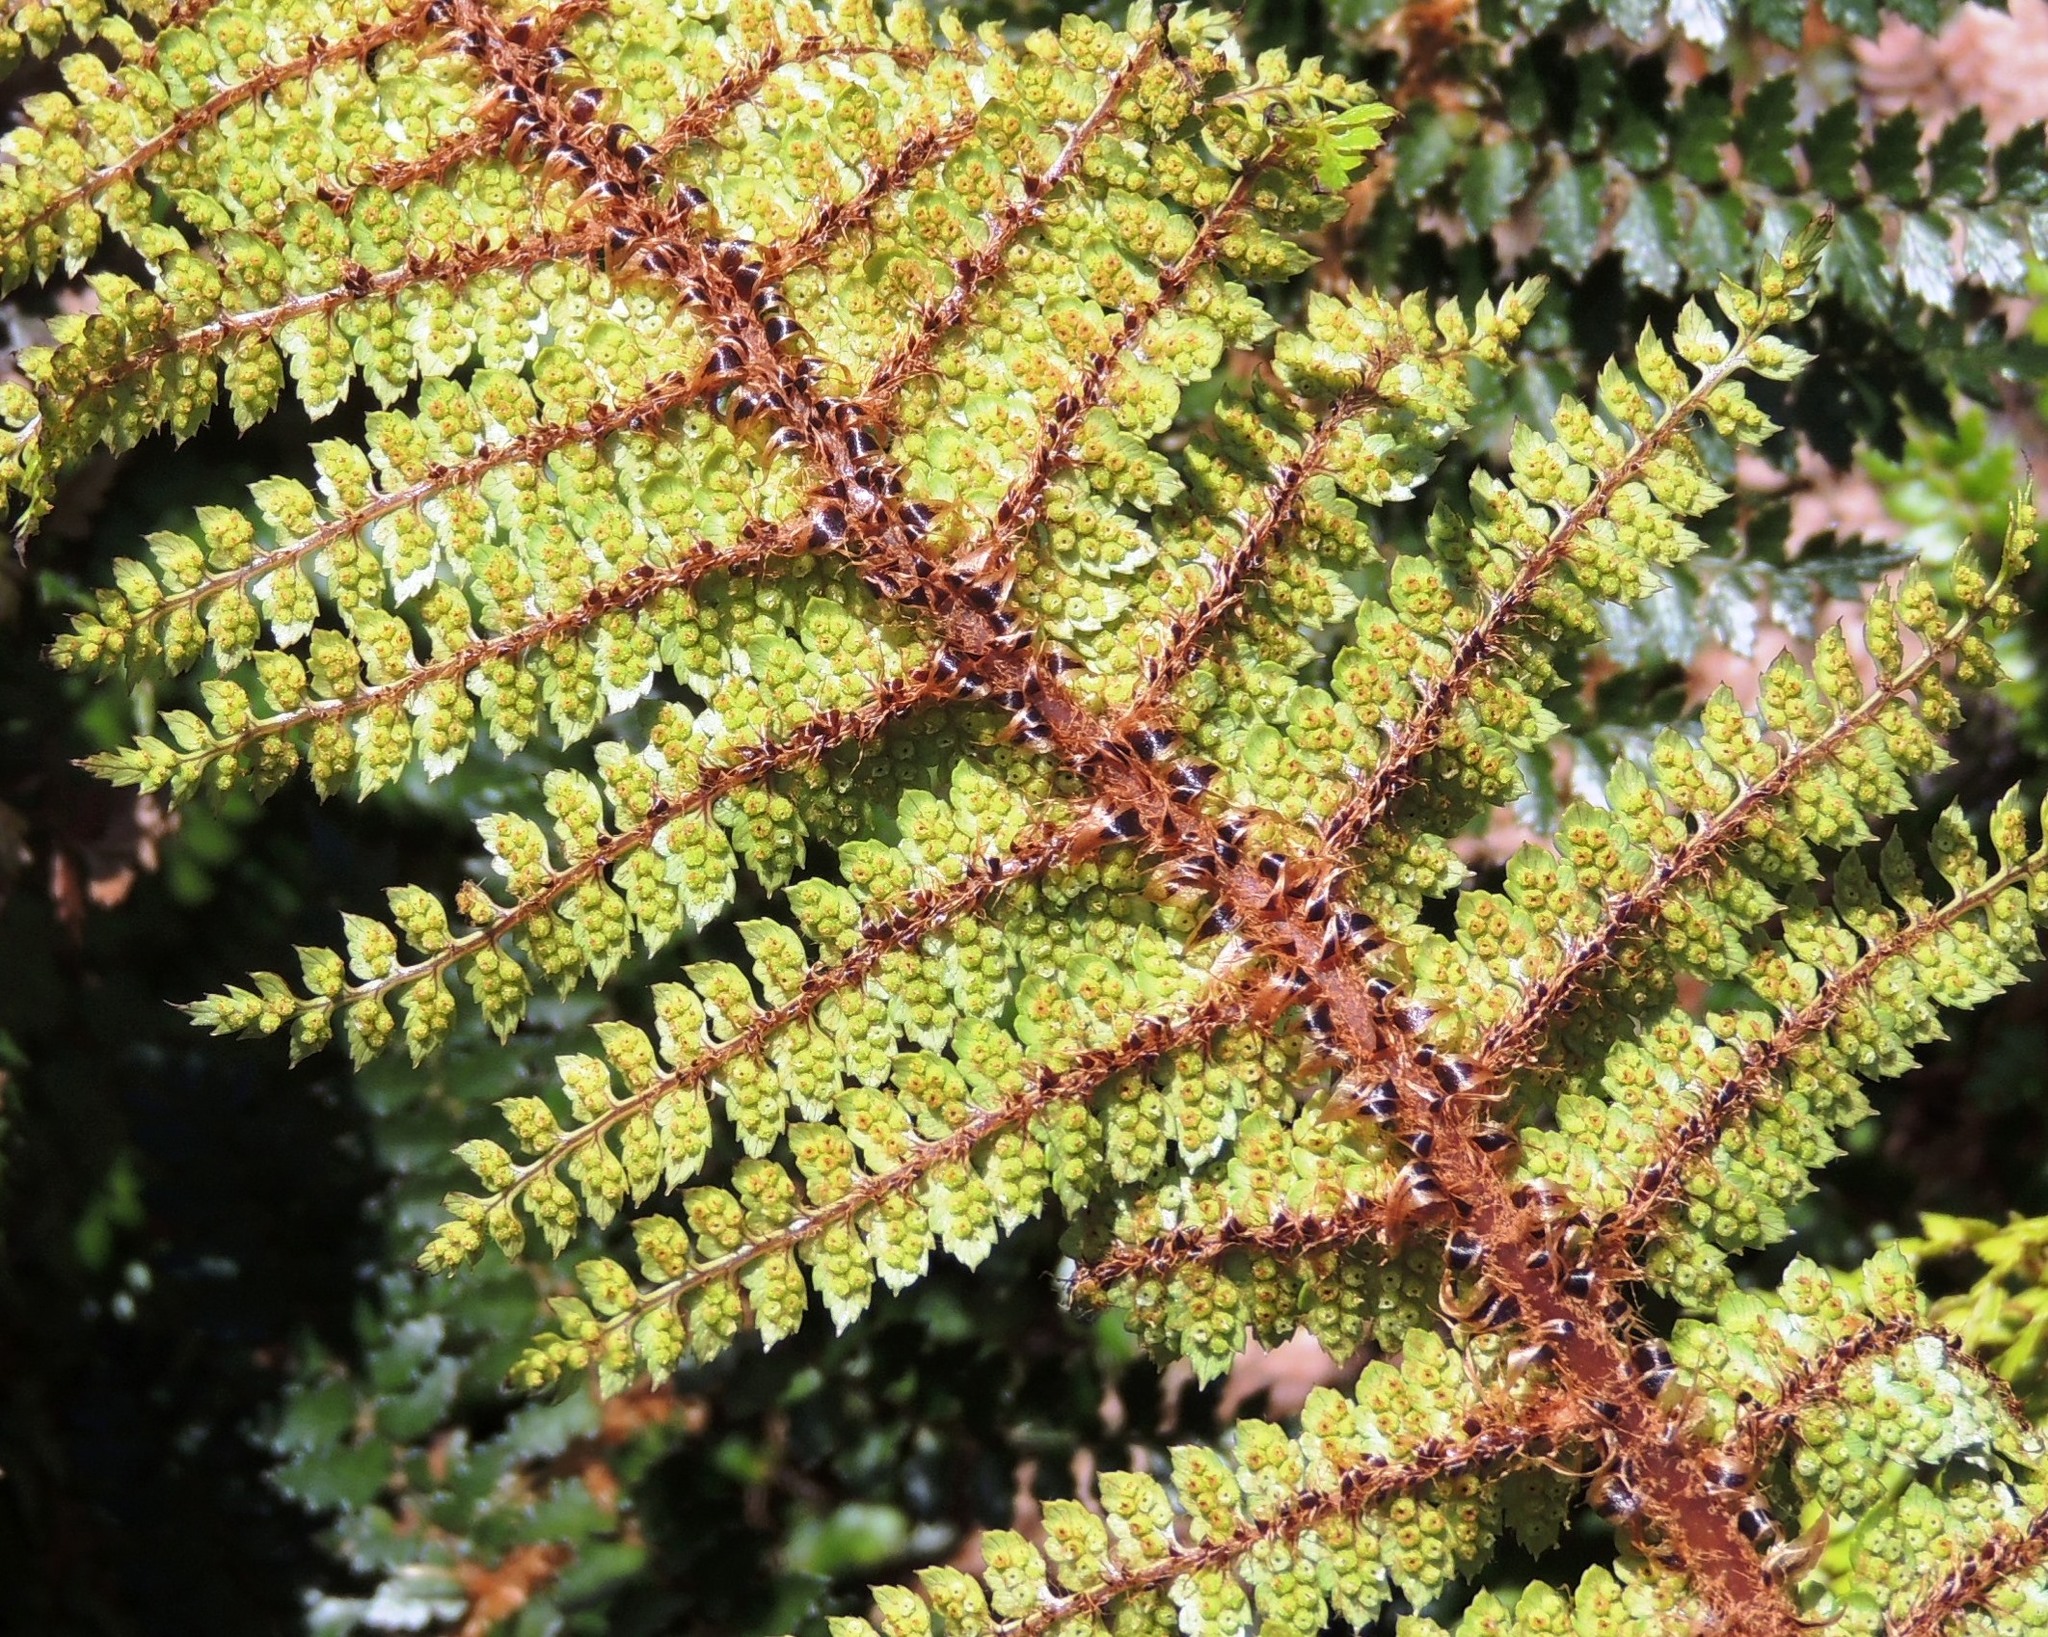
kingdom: Plantae
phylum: Tracheophyta
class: Polypodiopsida
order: Polypodiales
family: Dryopteridaceae
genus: Polystichum
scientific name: Polystichum vestitum
